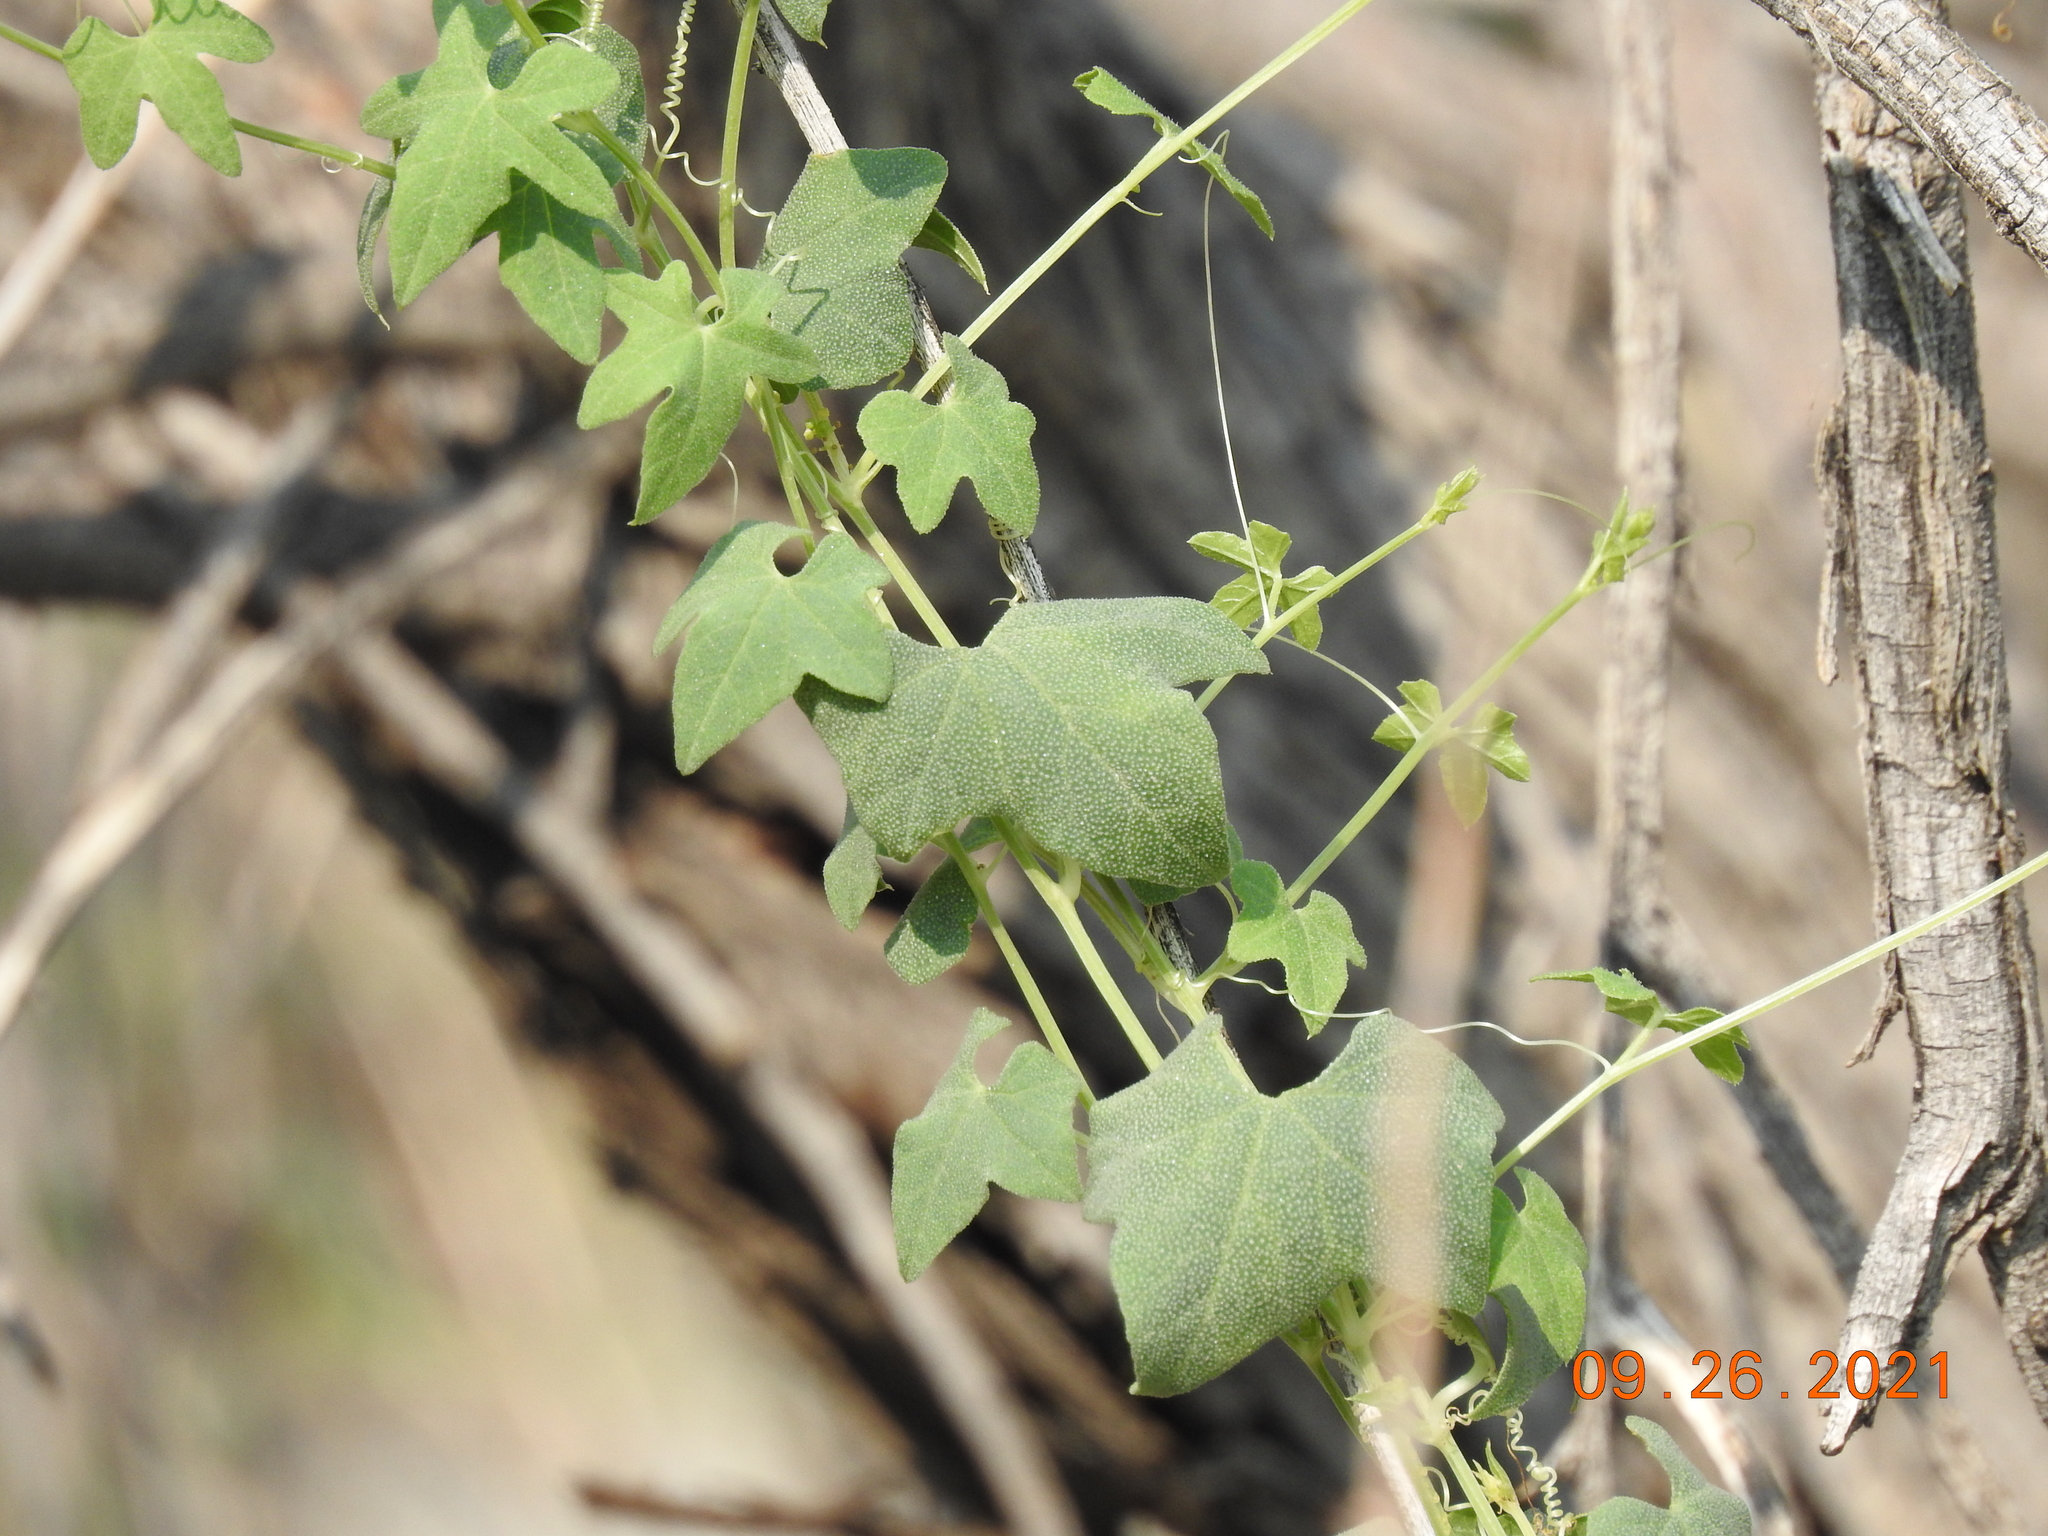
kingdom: Plantae
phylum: Tracheophyta
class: Magnoliopsida
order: Cucurbitales
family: Cucurbitaceae
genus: Echinopepon
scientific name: Echinopepon bigelovii
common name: Desert starvine
